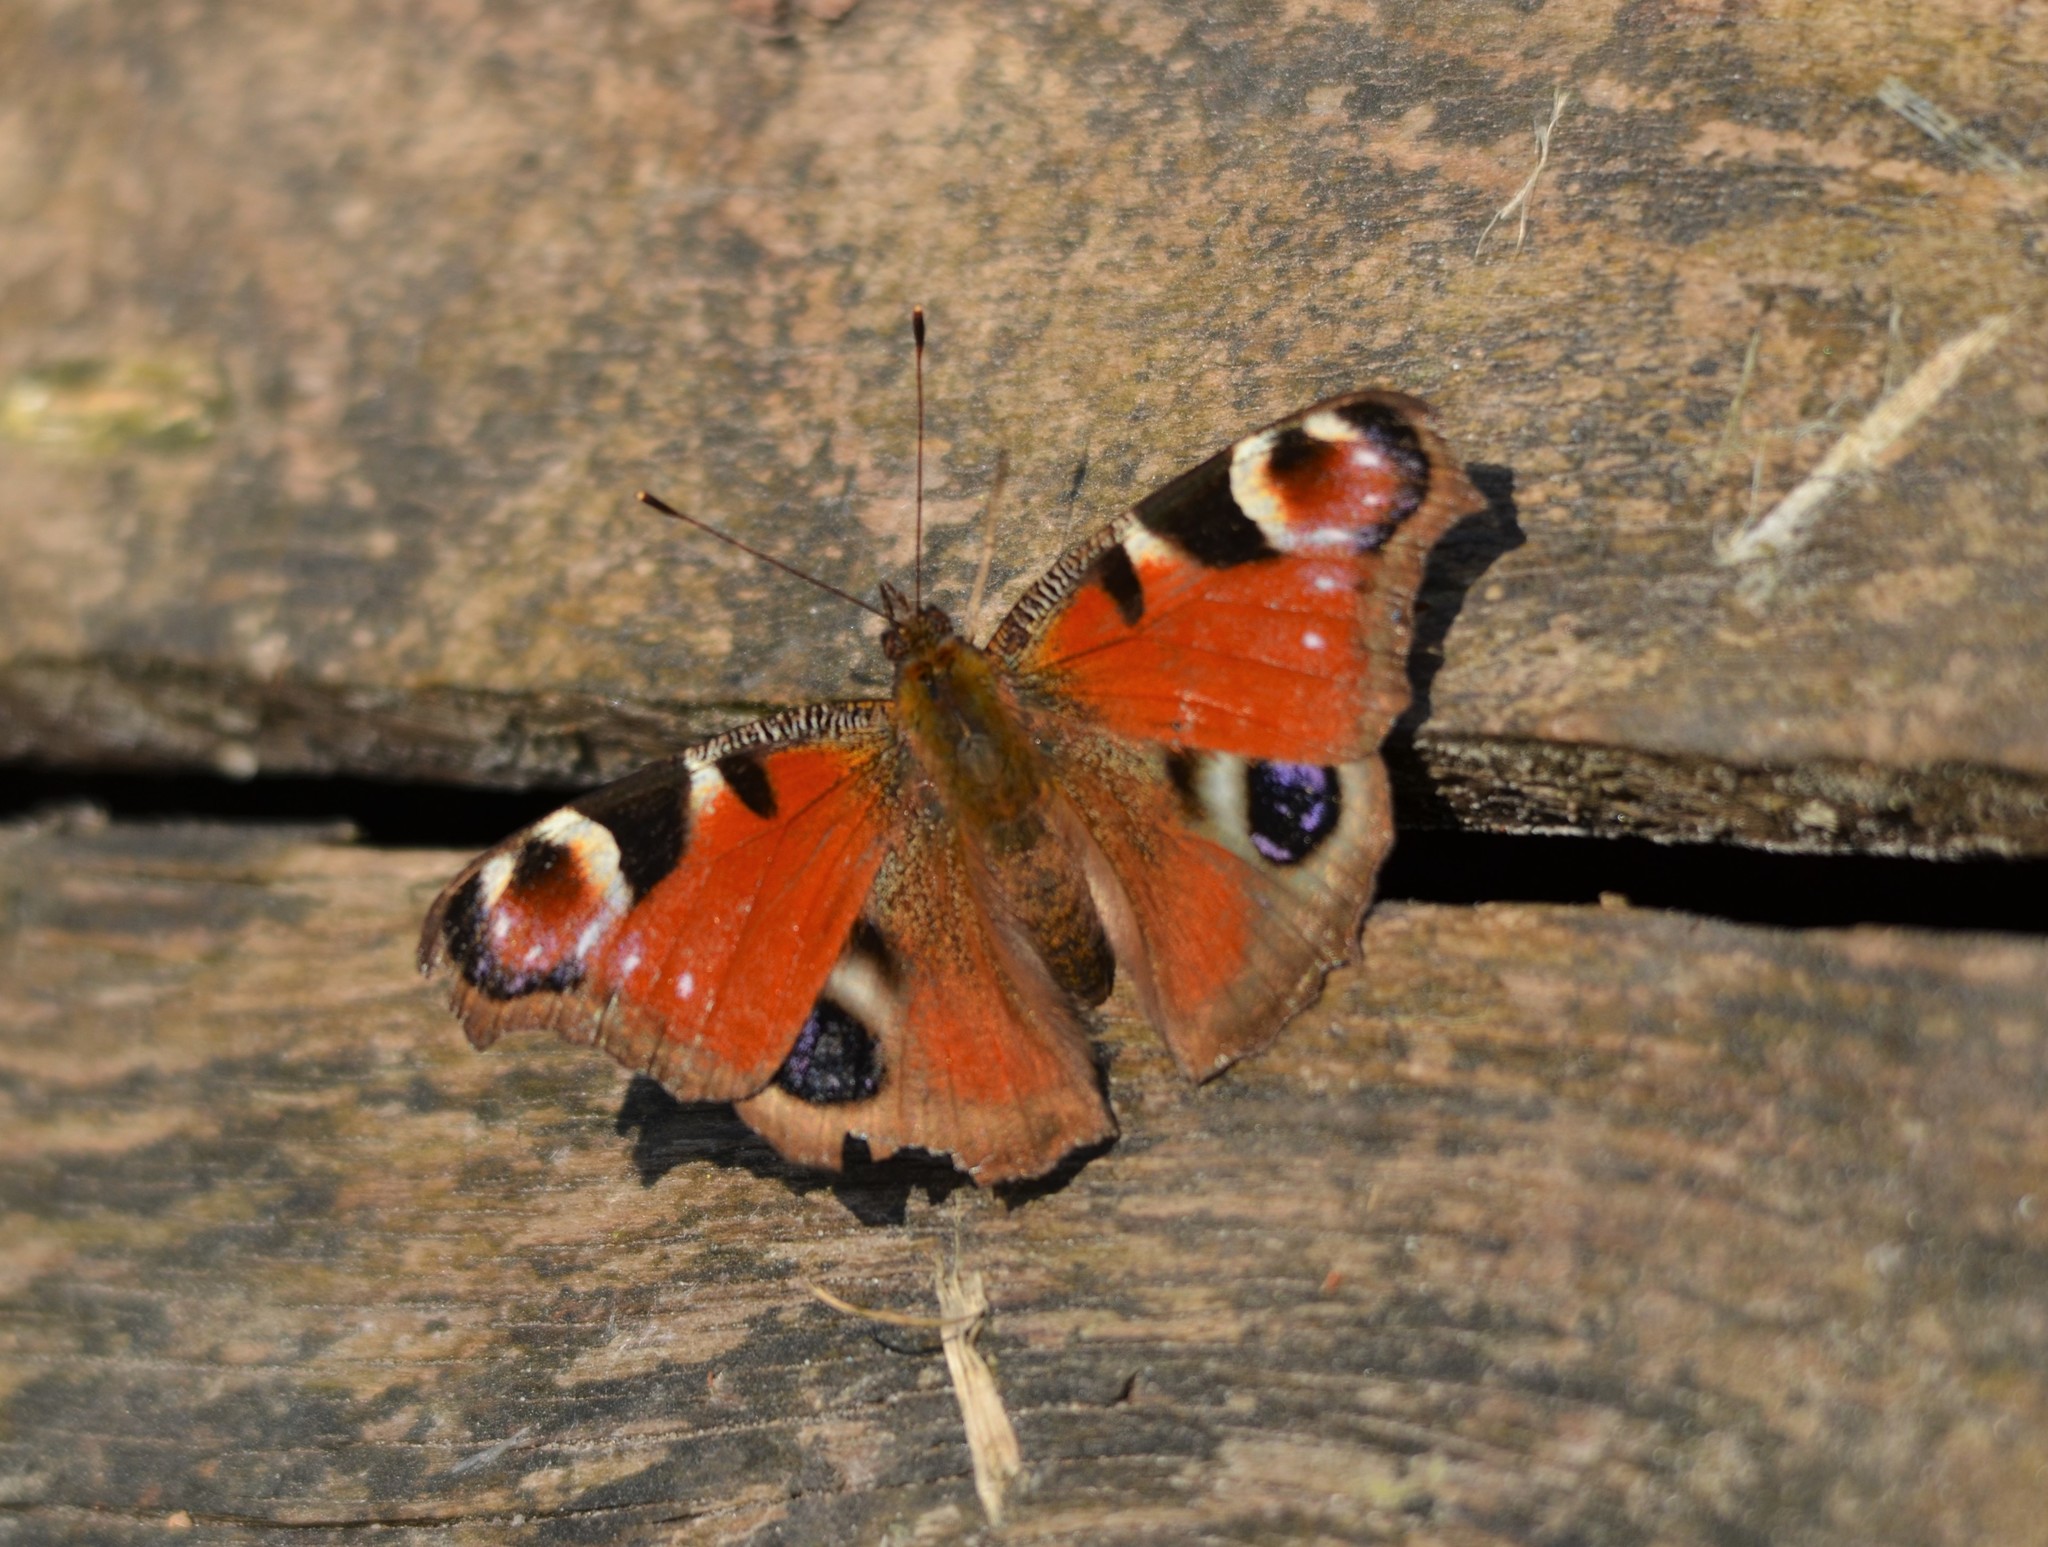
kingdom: Animalia
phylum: Arthropoda
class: Insecta
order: Lepidoptera
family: Nymphalidae
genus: Aglais
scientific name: Aglais io
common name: Peacock
